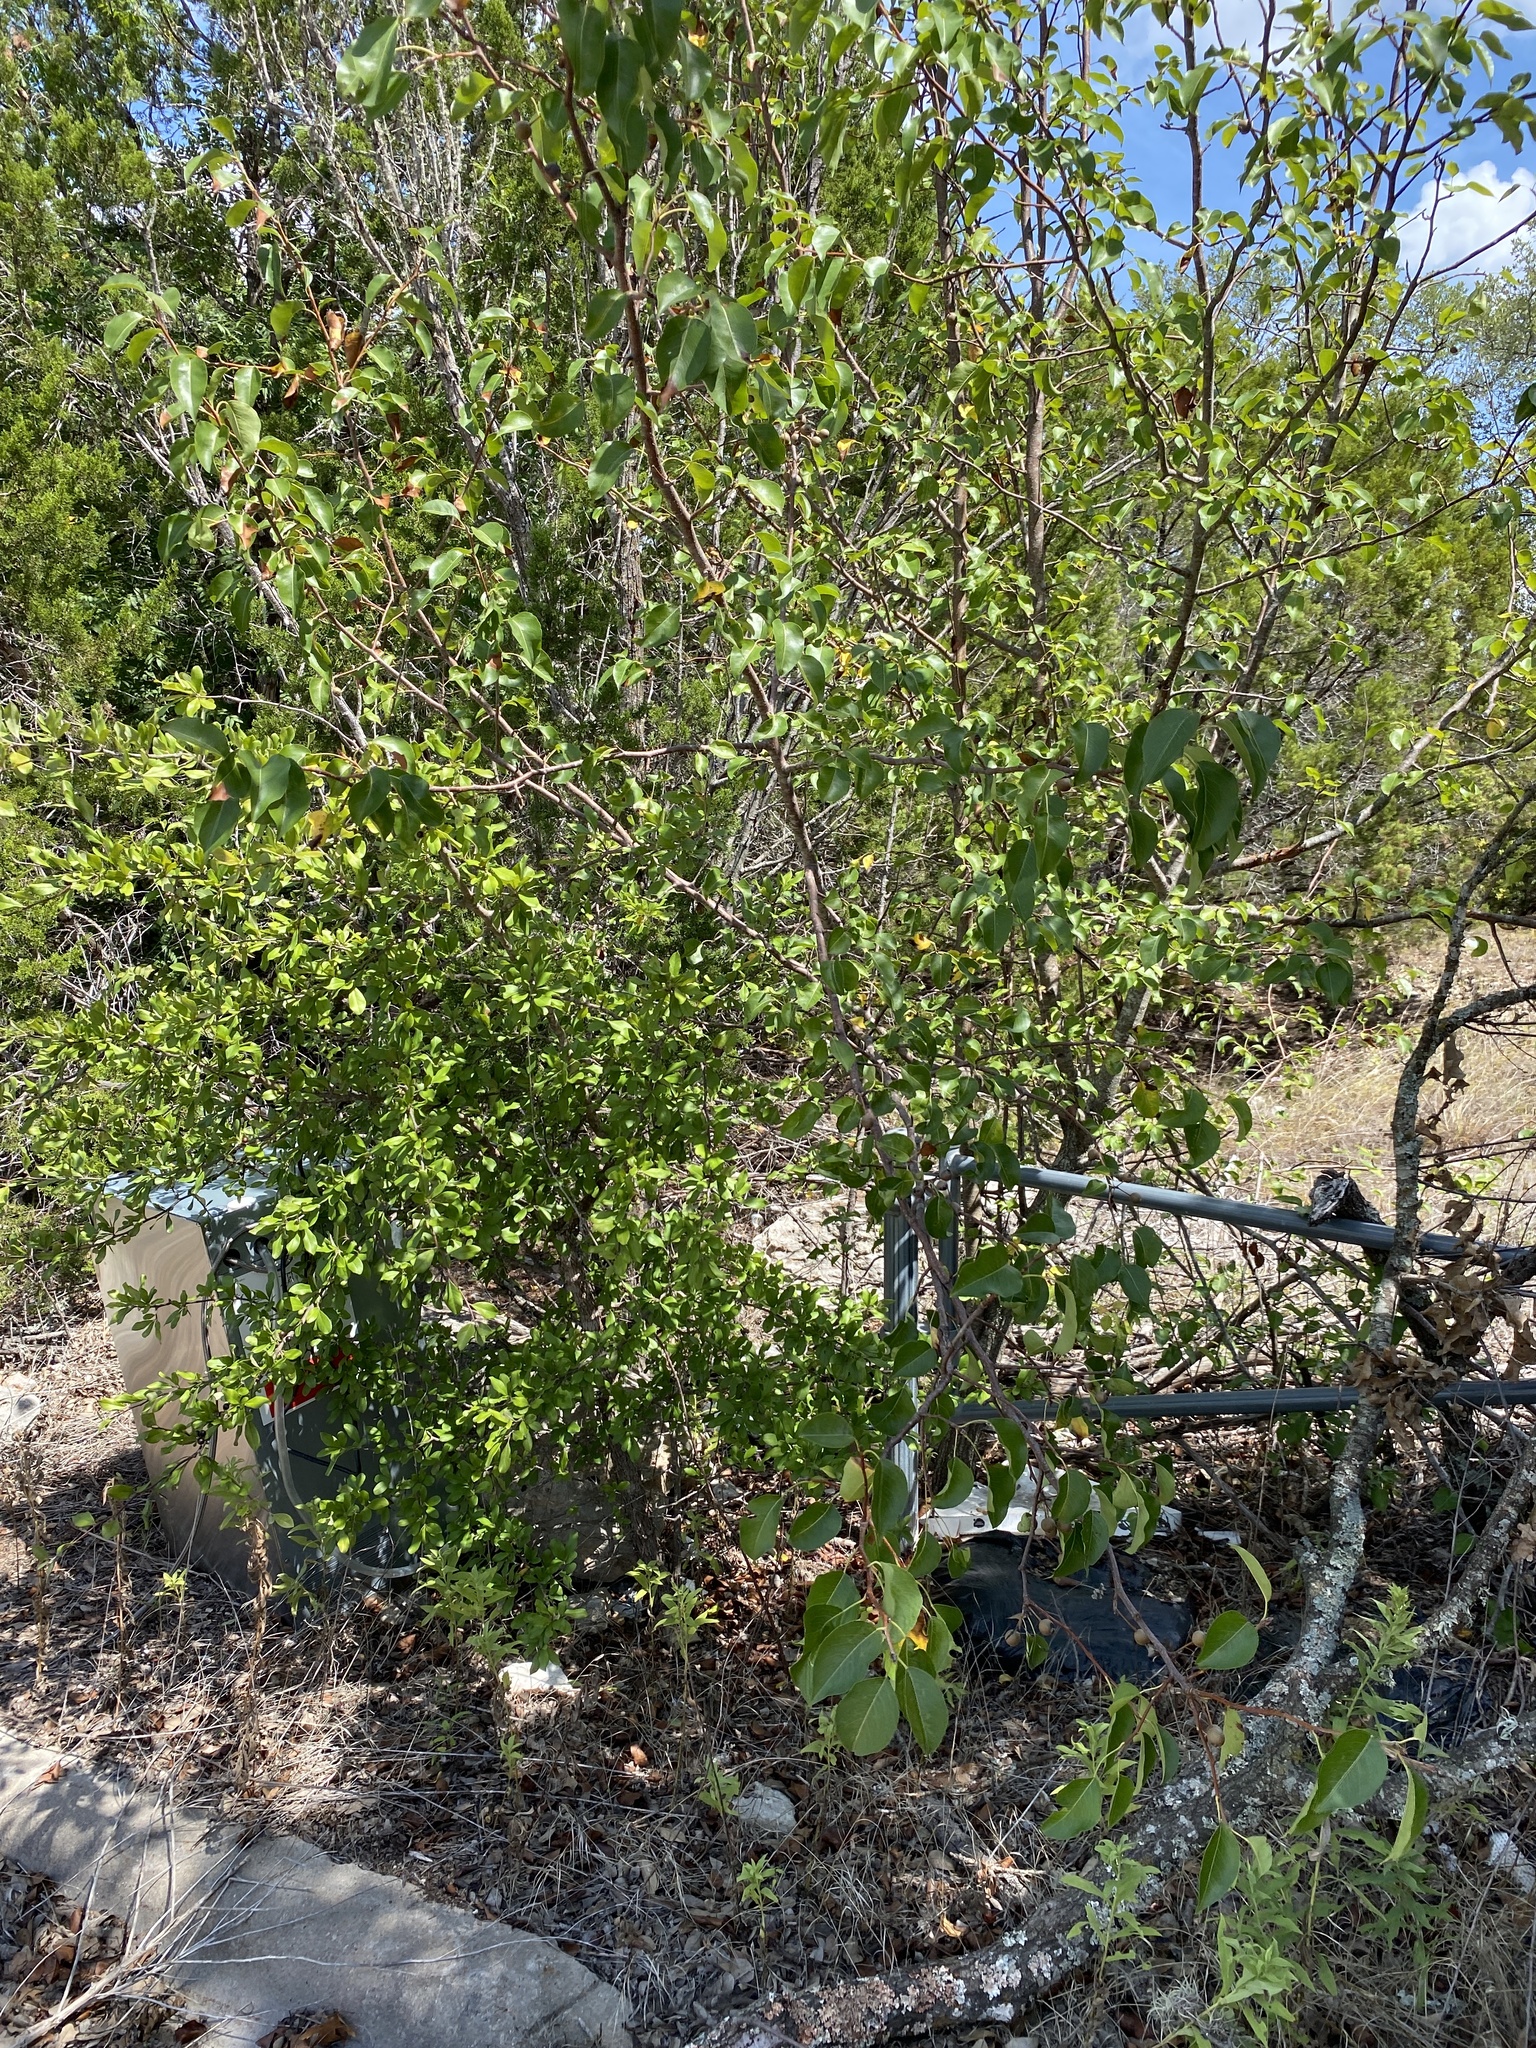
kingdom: Plantae
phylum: Tracheophyta
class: Magnoliopsida
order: Rosales
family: Rosaceae
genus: Pyrus
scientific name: Pyrus calleryana
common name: Callery pear
